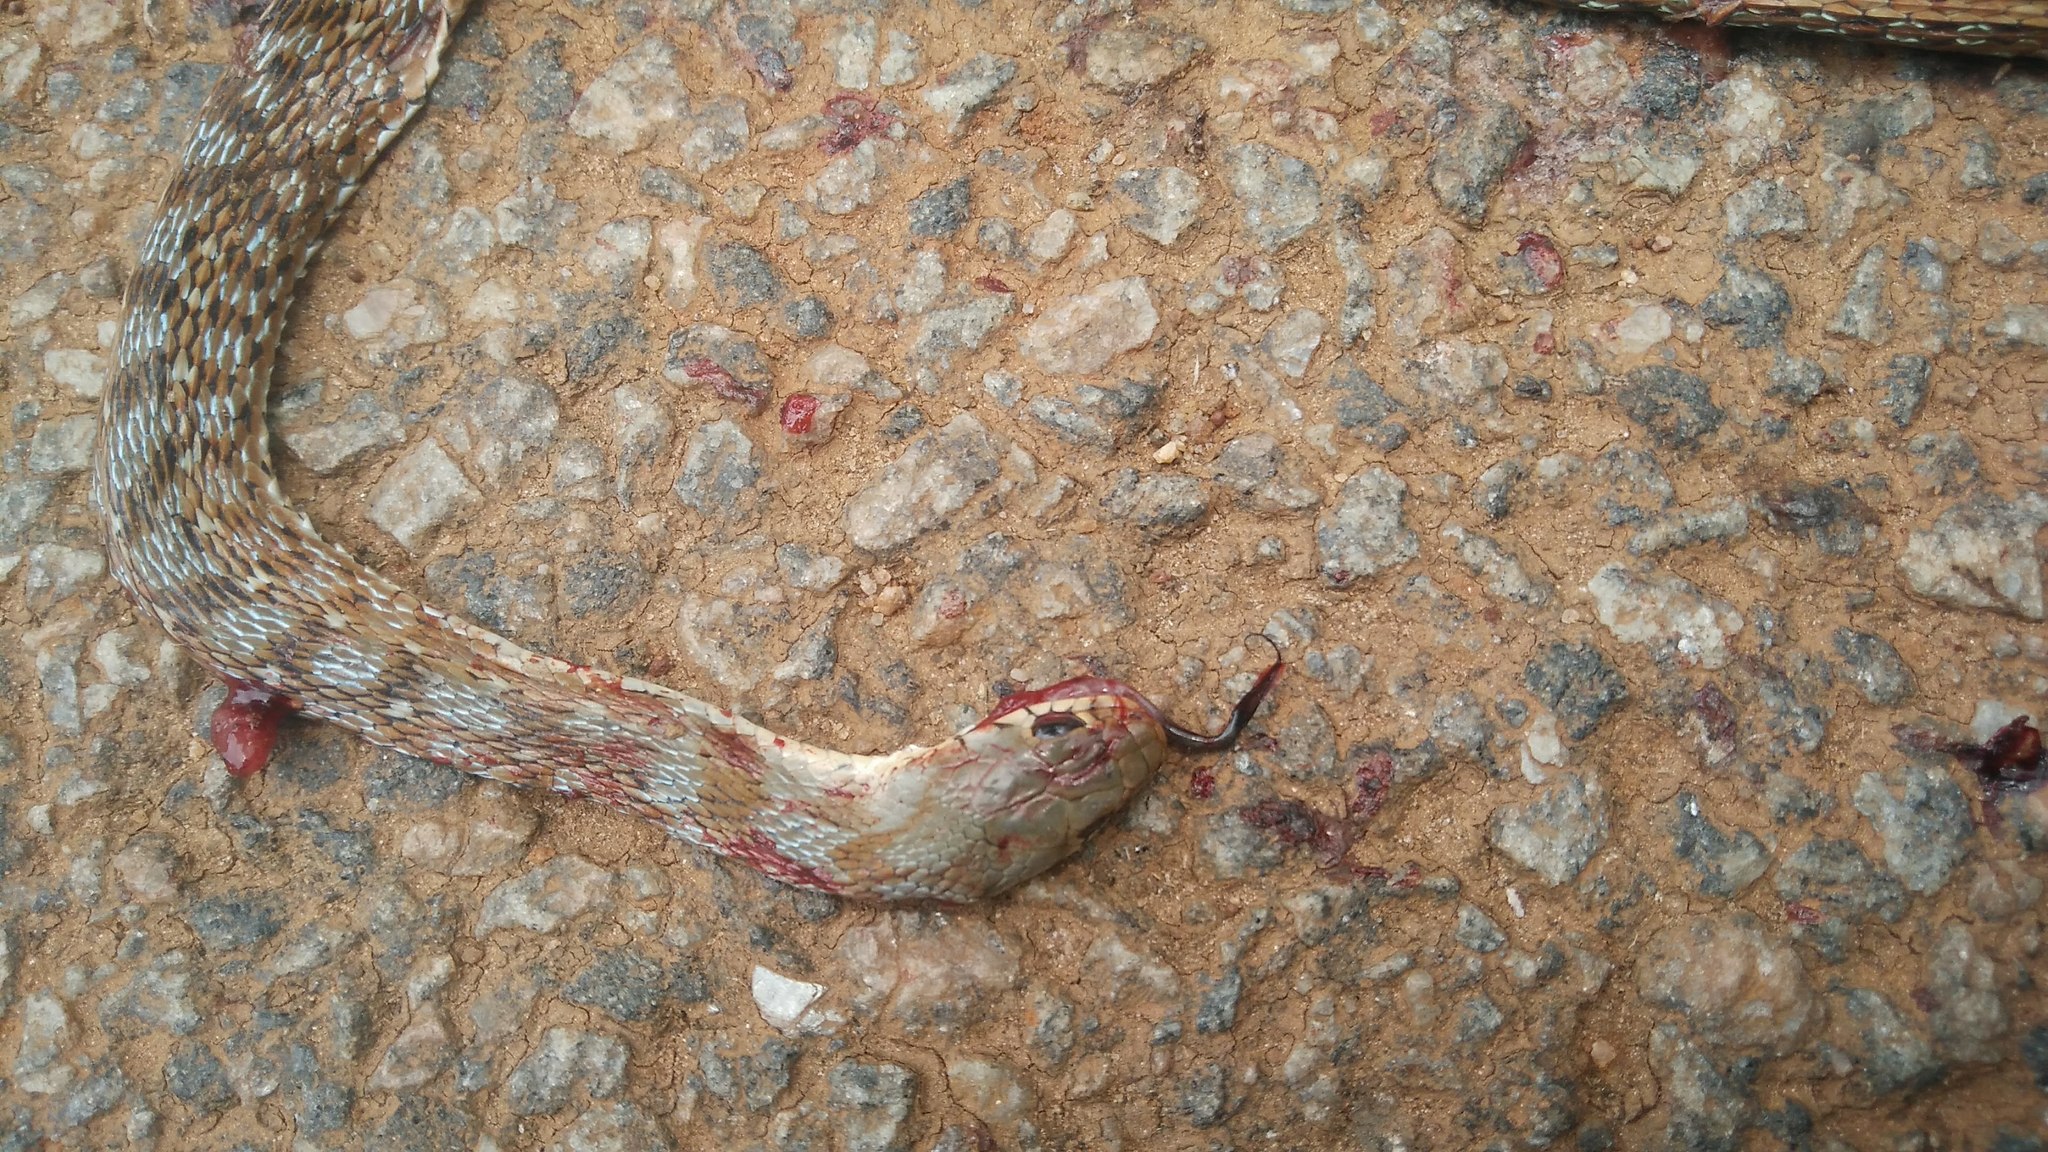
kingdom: Animalia
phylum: Chordata
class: Squamata
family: Colubridae
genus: Amphiesma
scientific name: Amphiesma stolatum
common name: Buff striped keelback
